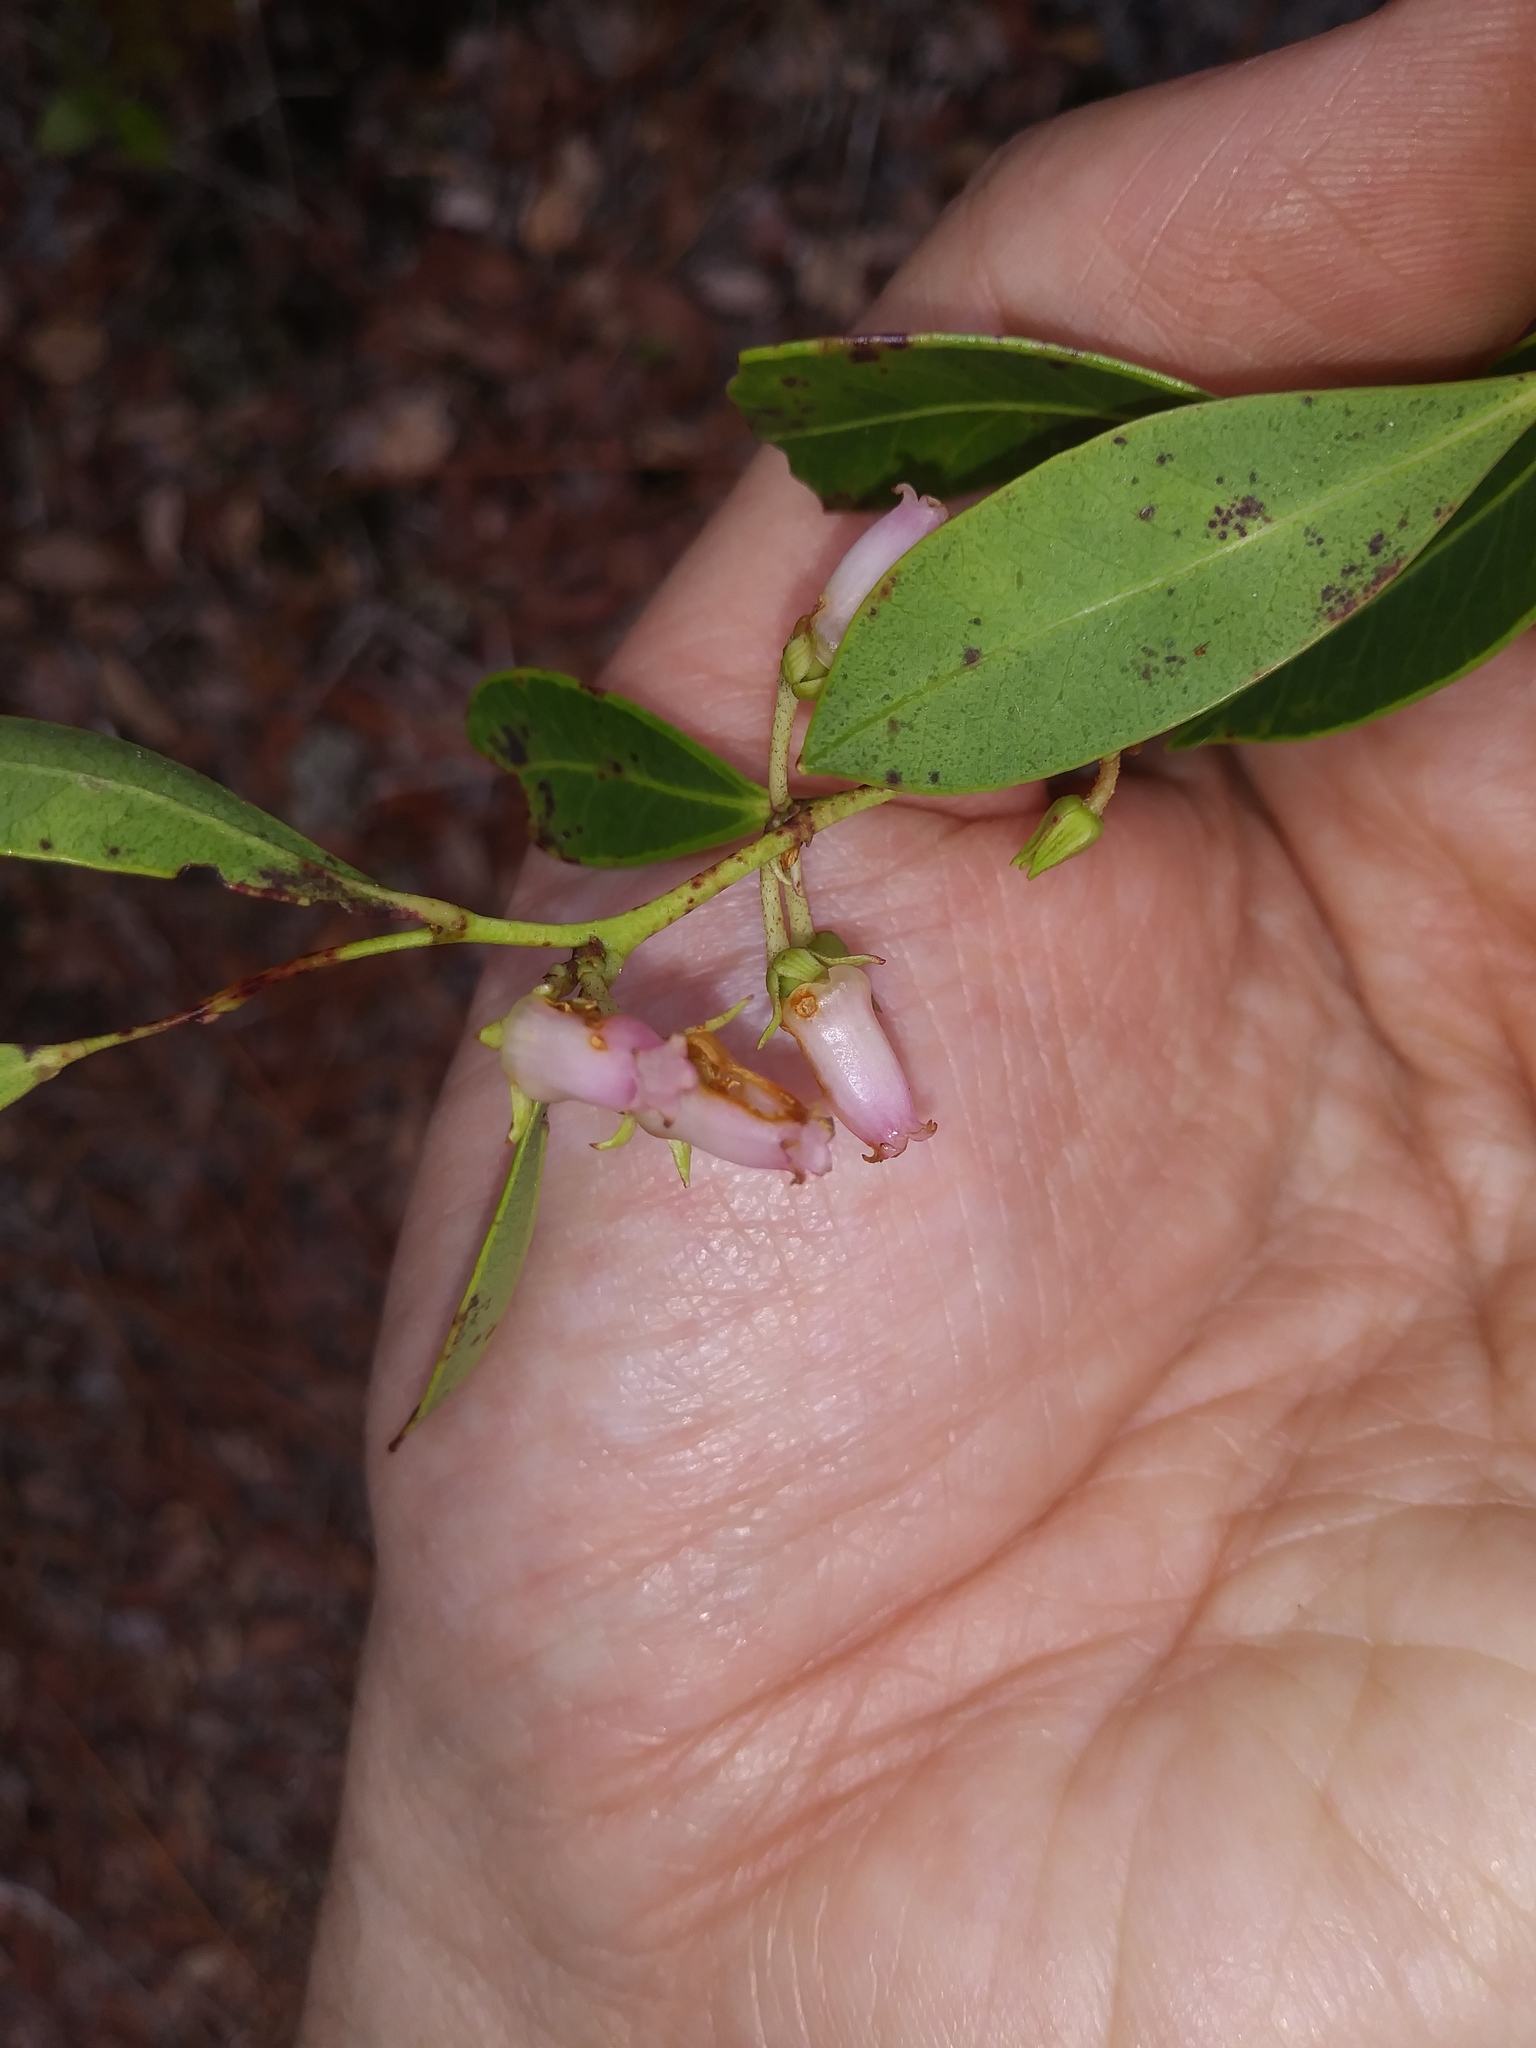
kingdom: Plantae
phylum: Tracheophyta
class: Magnoliopsida
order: Ericales
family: Ericaceae
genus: Lyonia
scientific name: Lyonia lucida
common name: Fetterbush
